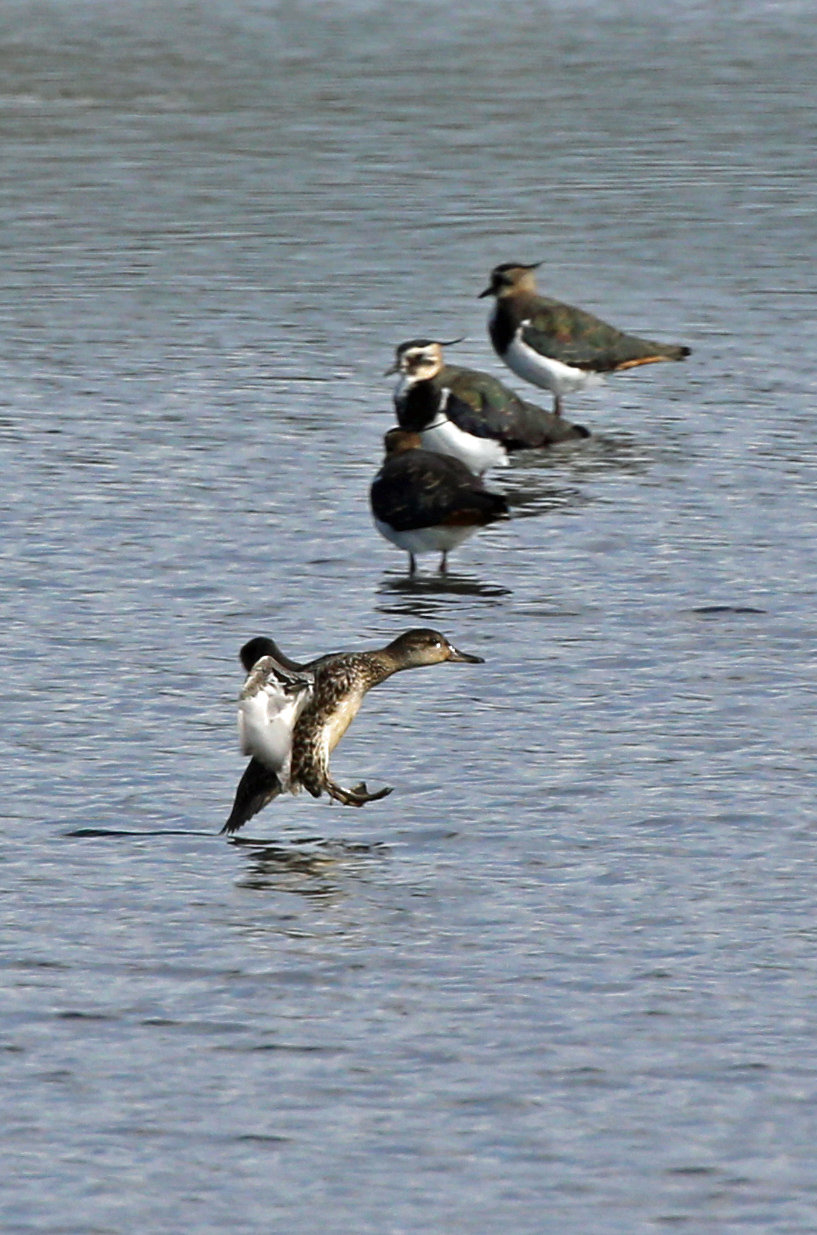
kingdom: Animalia
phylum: Chordata
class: Aves
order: Anseriformes
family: Anatidae
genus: Anas
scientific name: Anas crecca
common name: Eurasian teal
